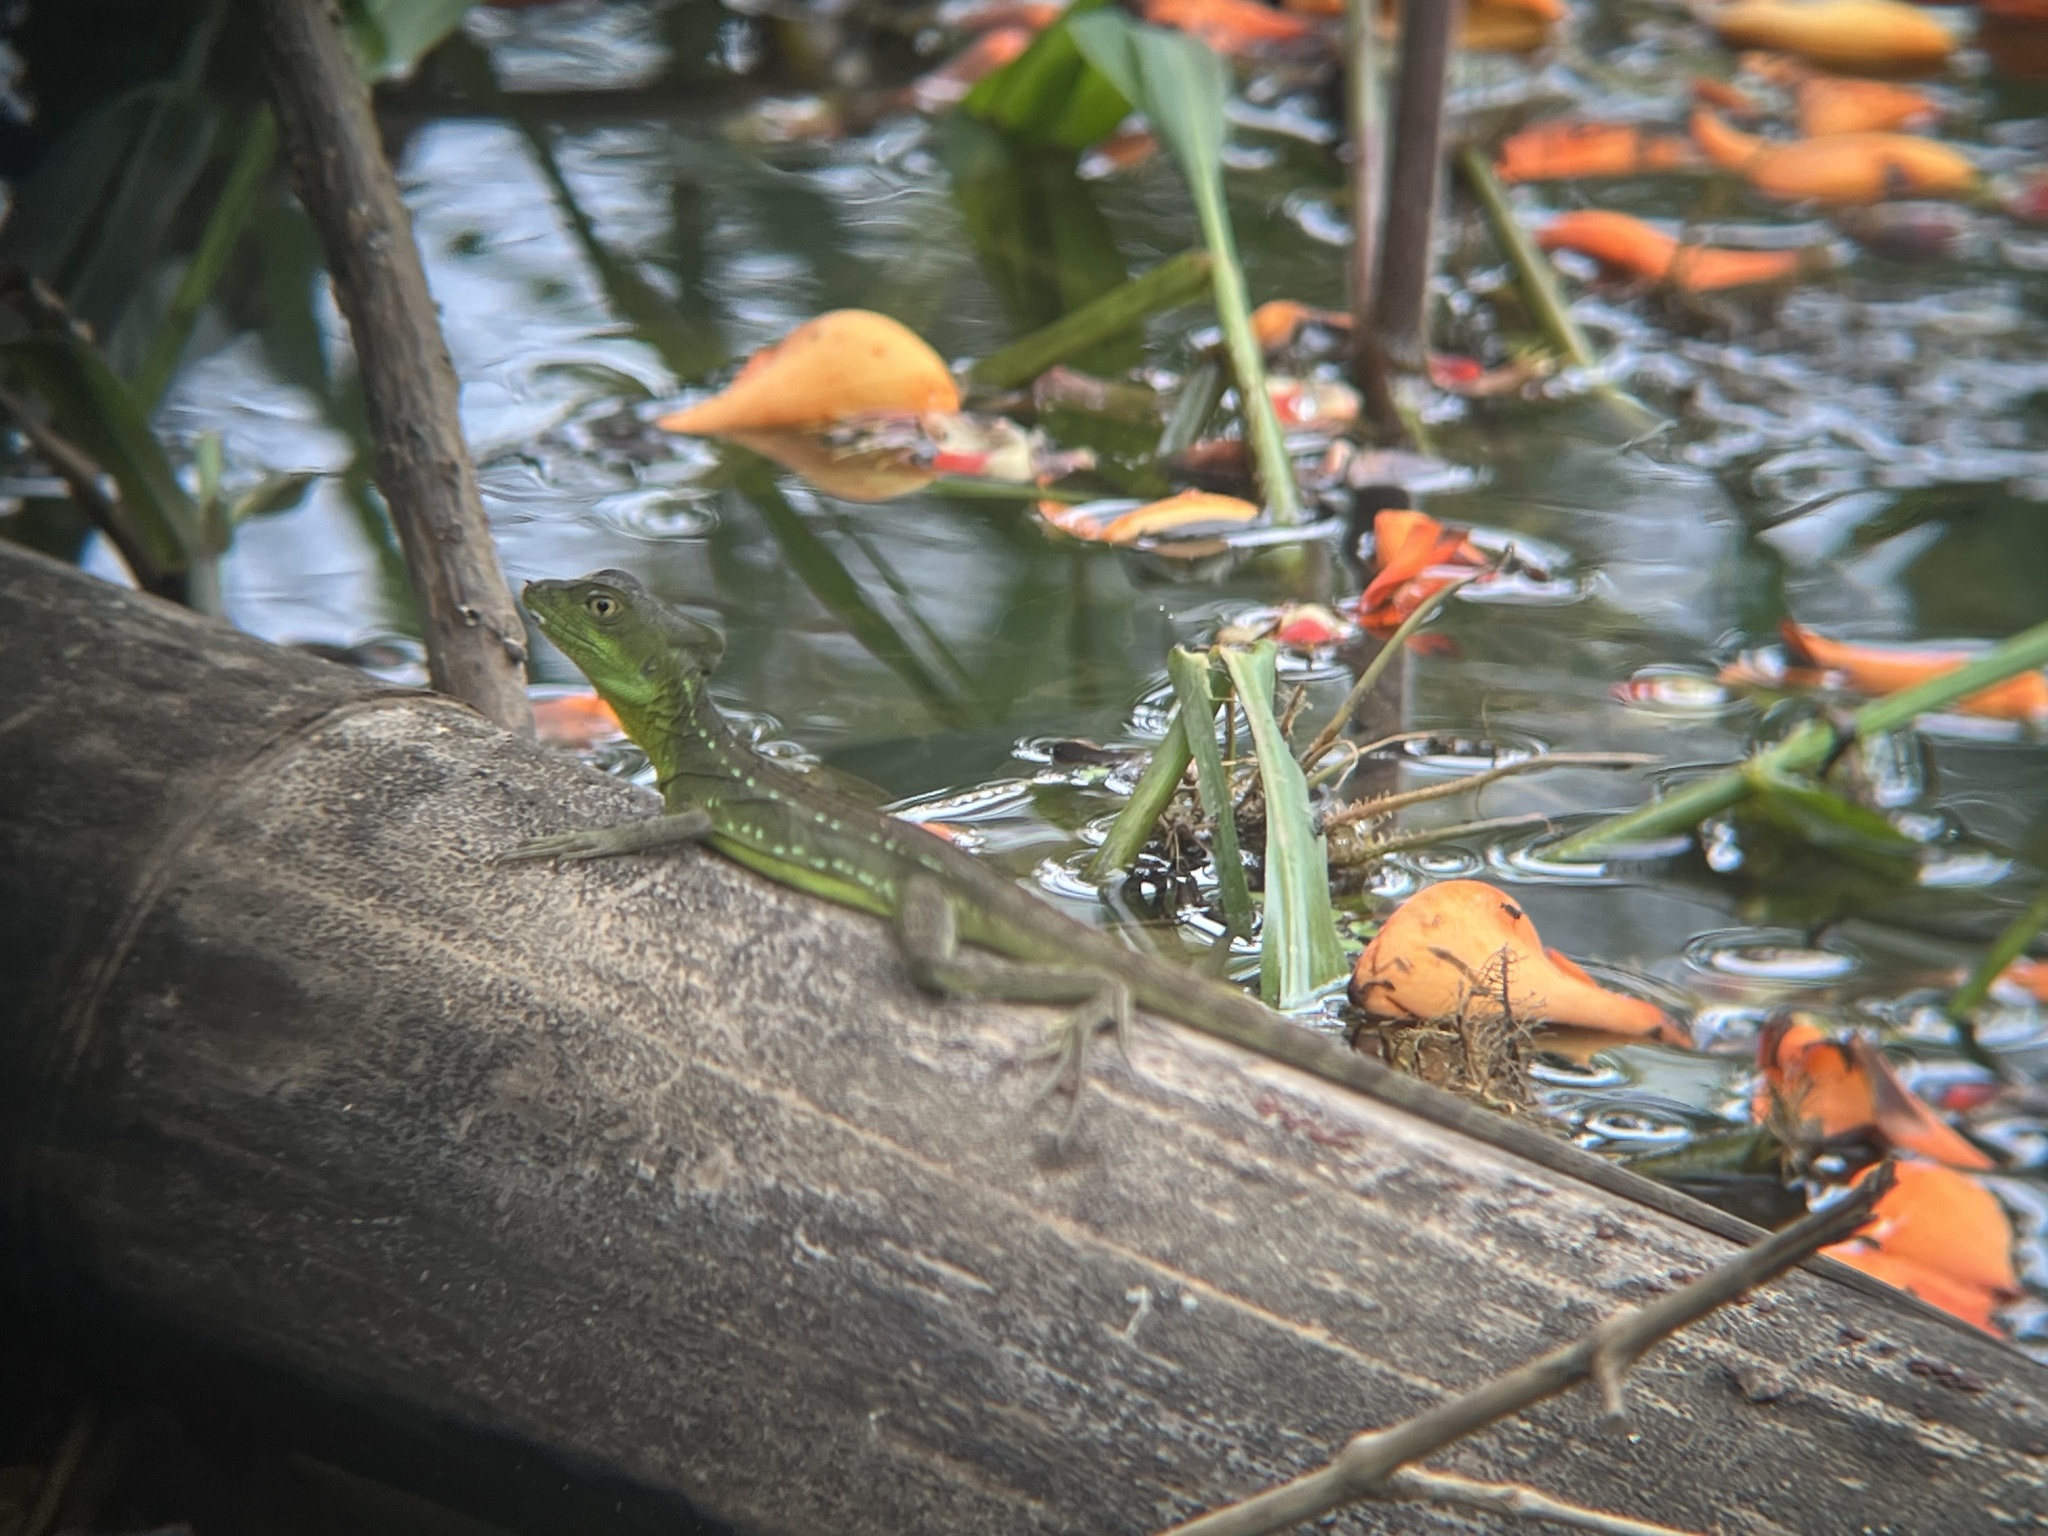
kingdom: Animalia
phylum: Chordata
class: Squamata
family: Corytophanidae
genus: Basiliscus
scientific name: Basiliscus plumifrons
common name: Green basilisk
